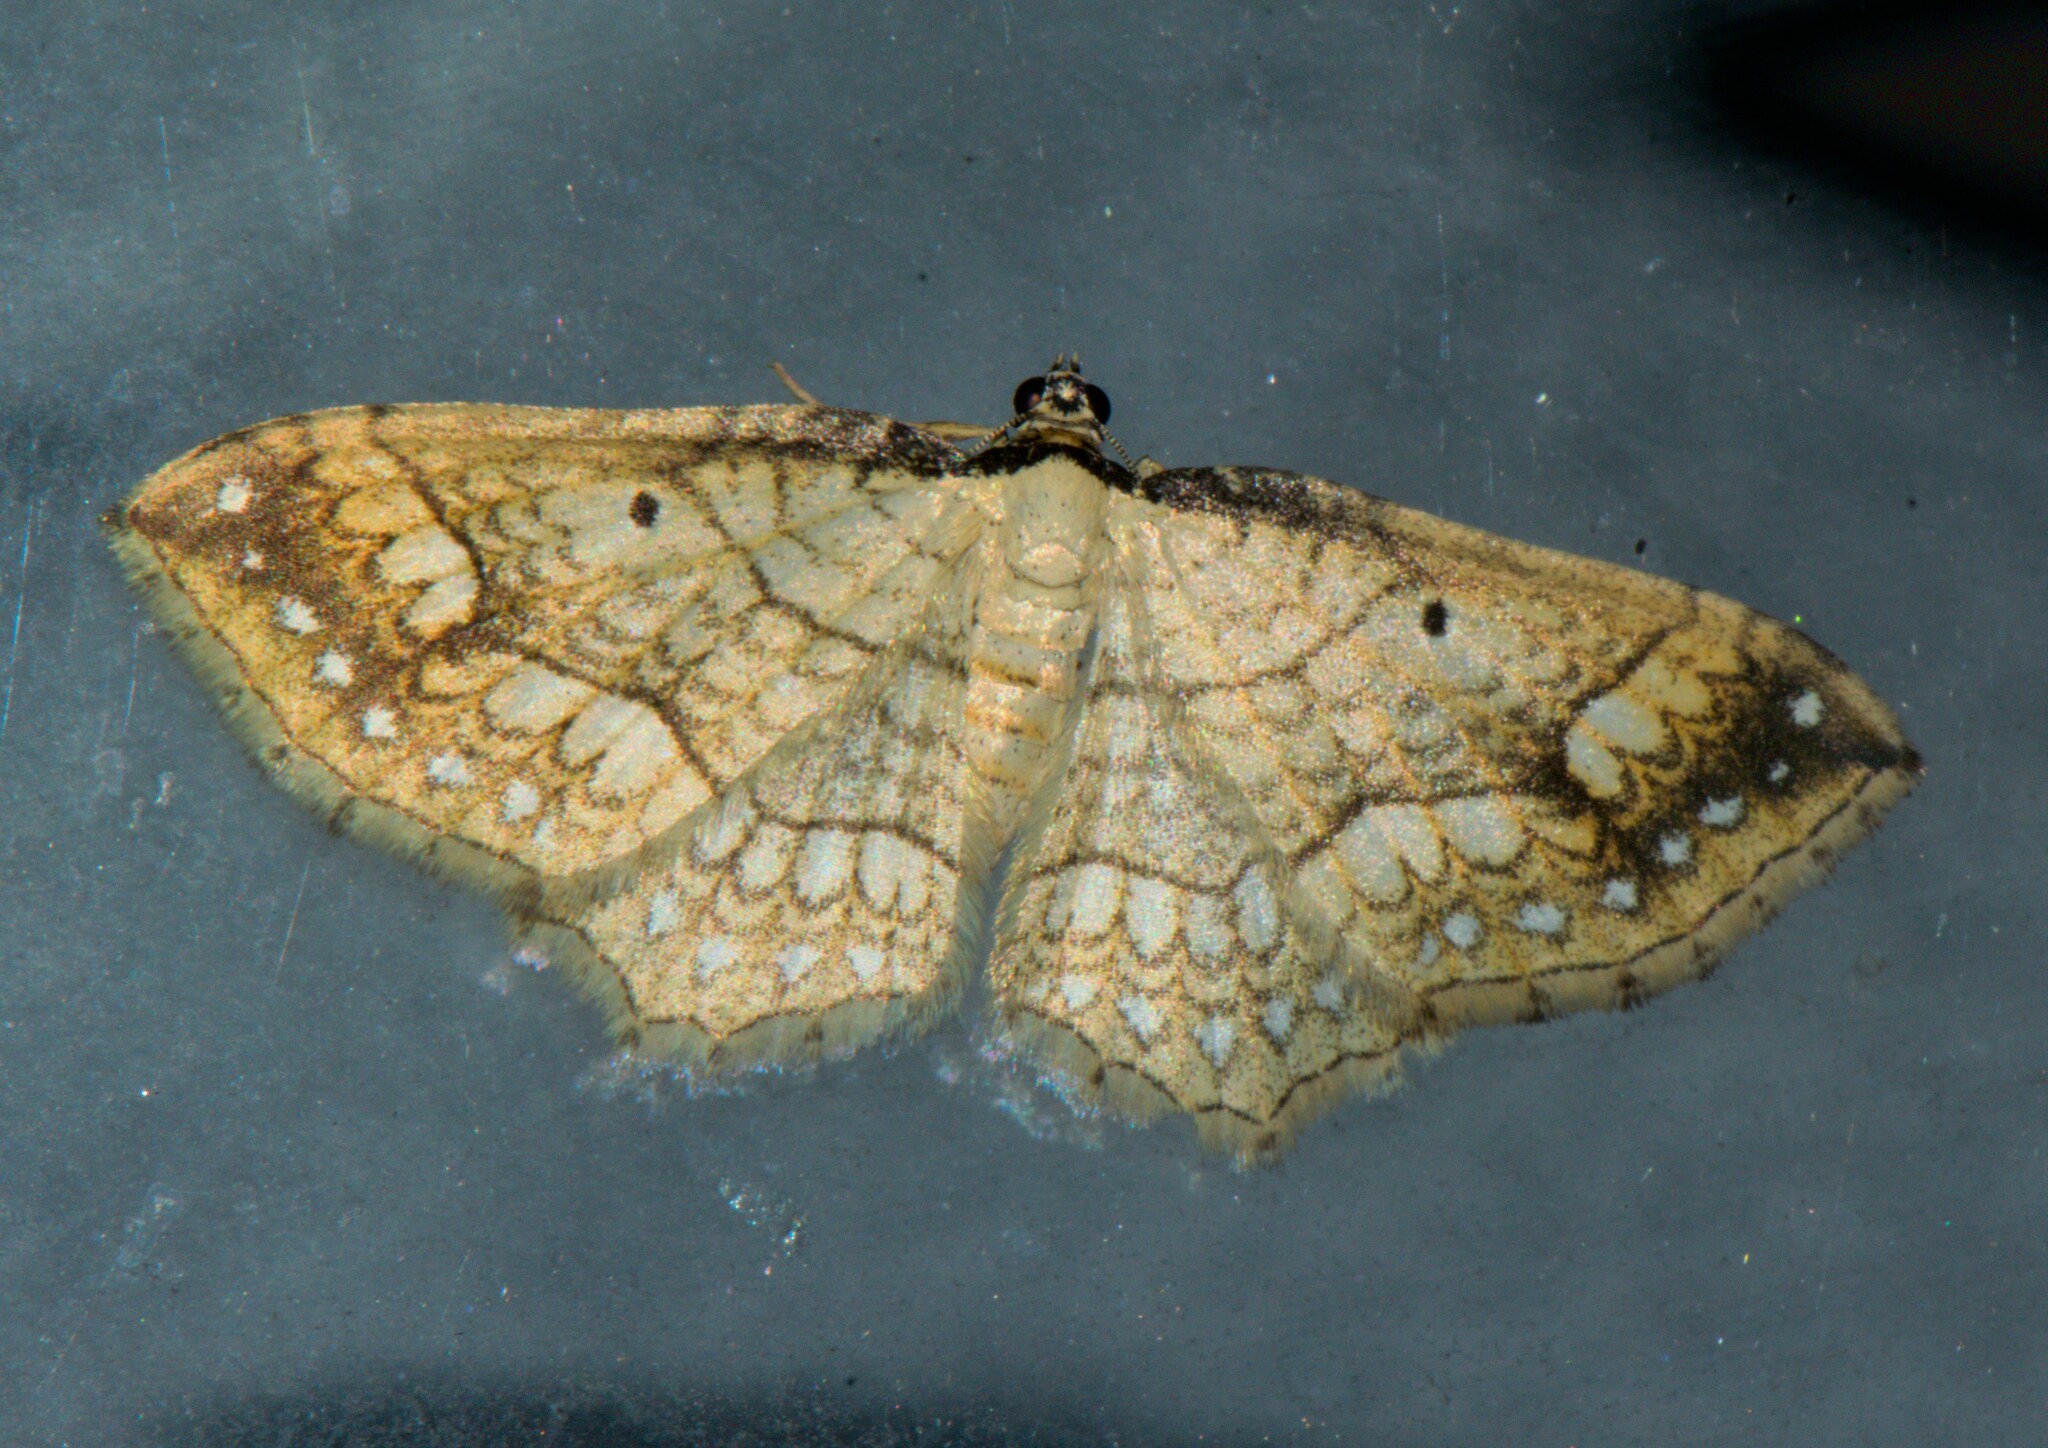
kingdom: Animalia
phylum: Arthropoda
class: Insecta
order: Lepidoptera
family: Geometridae
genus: Laciniodes
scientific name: Laciniodes plurilinearia
